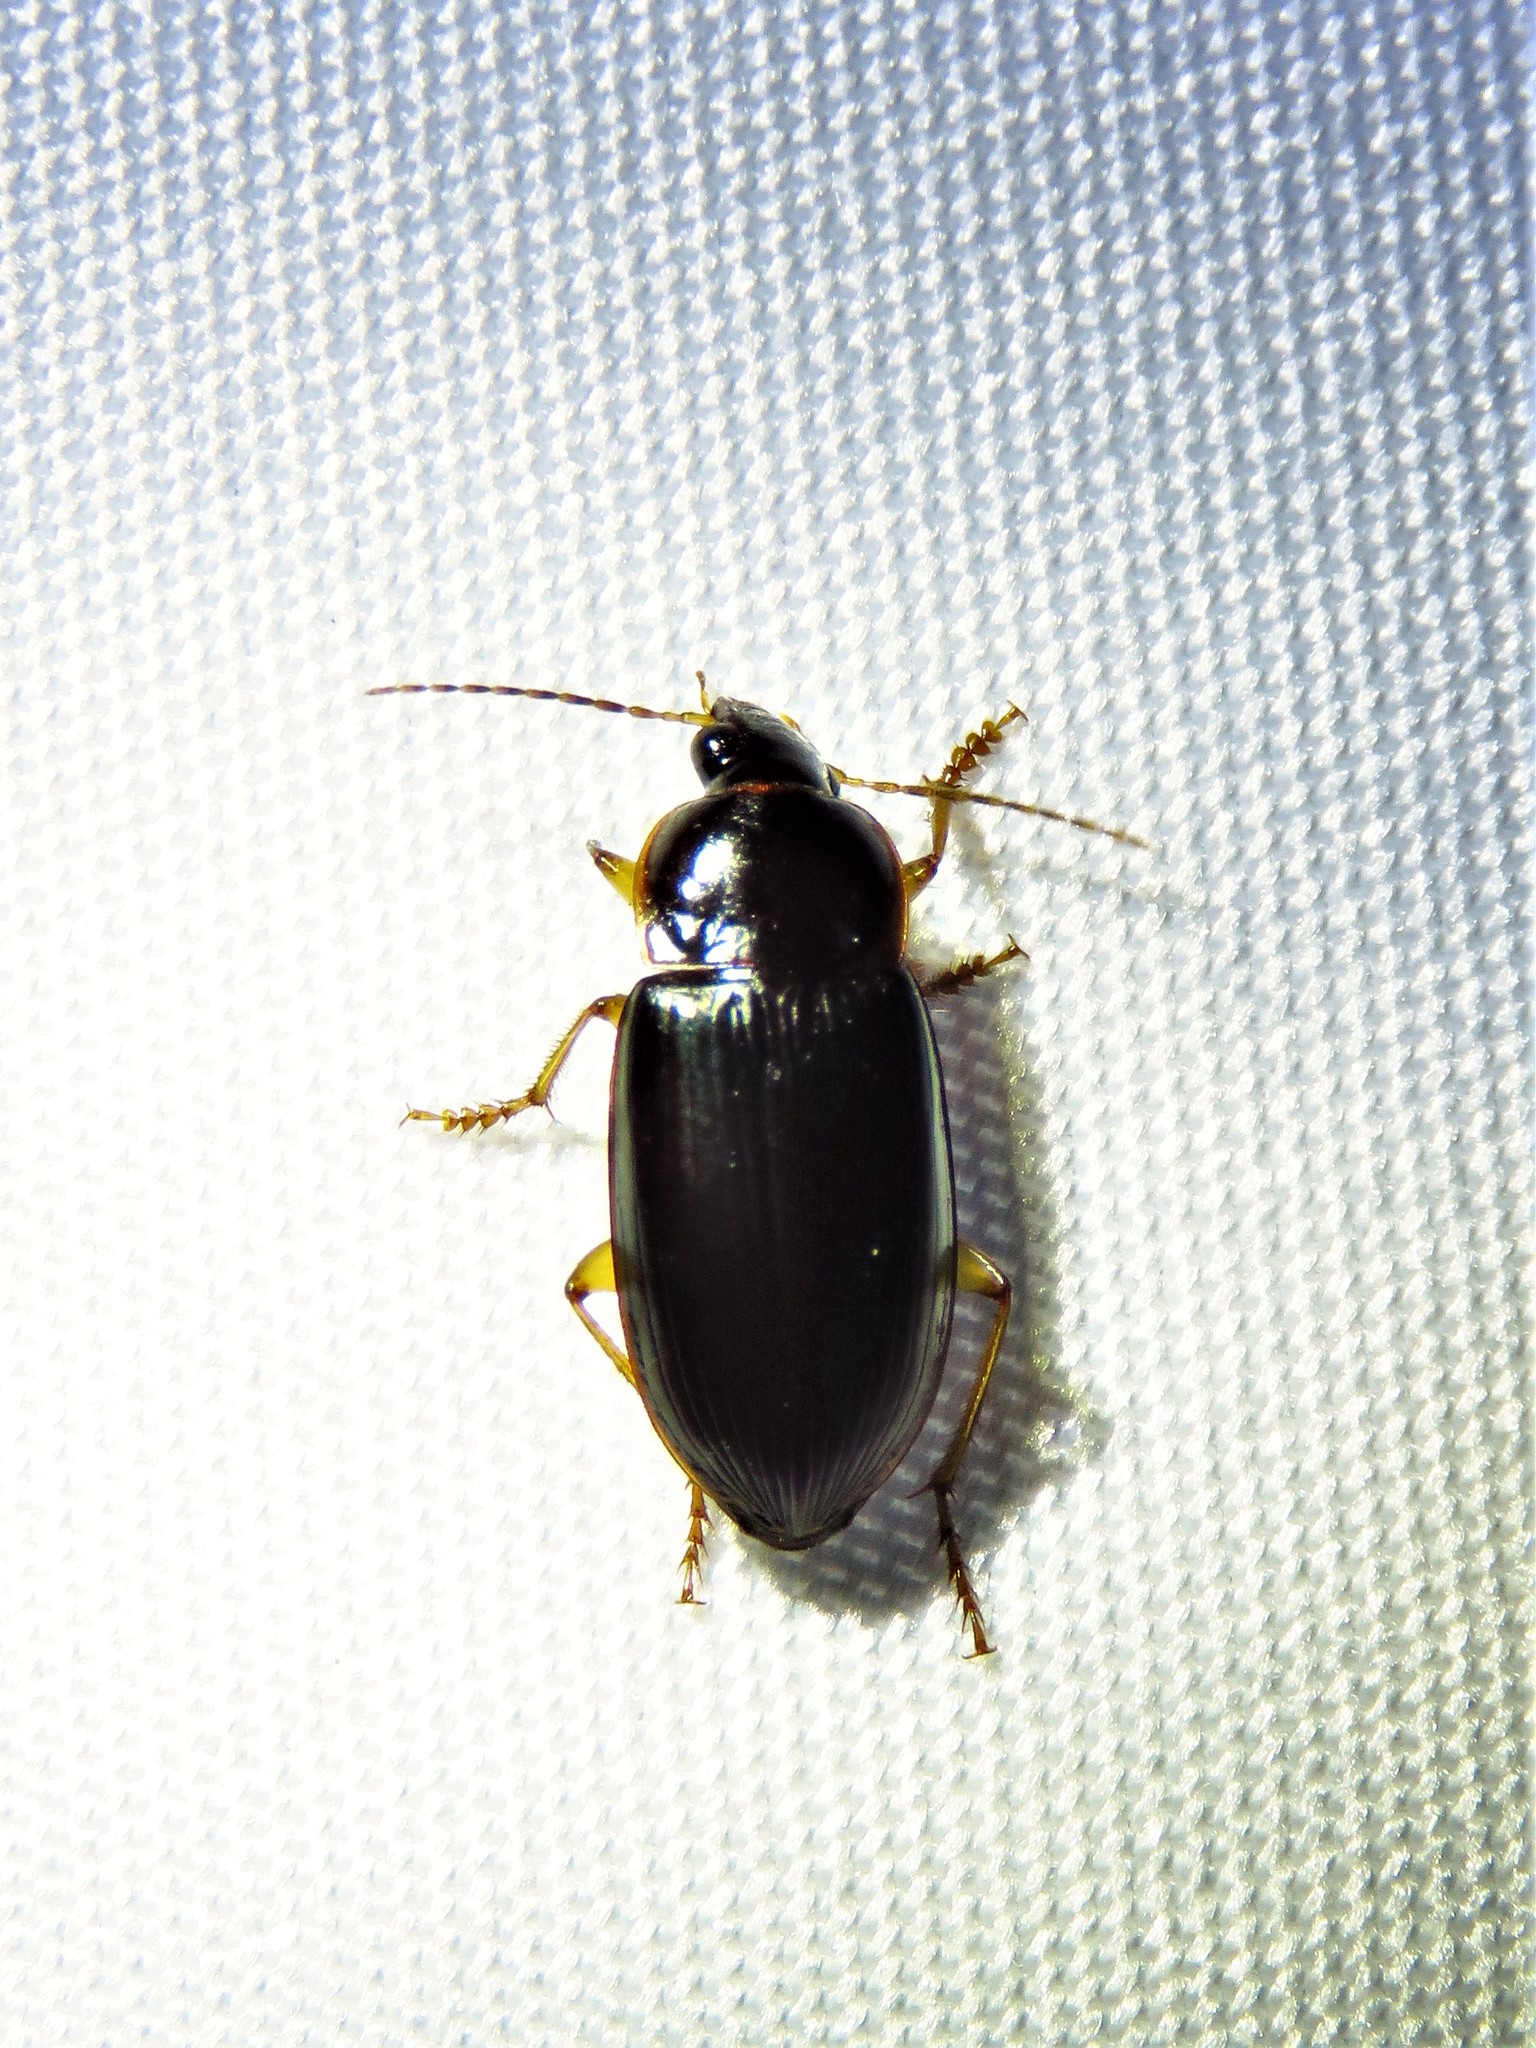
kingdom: Animalia
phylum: Arthropoda
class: Insecta
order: Coleoptera
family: Carabidae
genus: Notiobia
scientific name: Notiobia terminata
